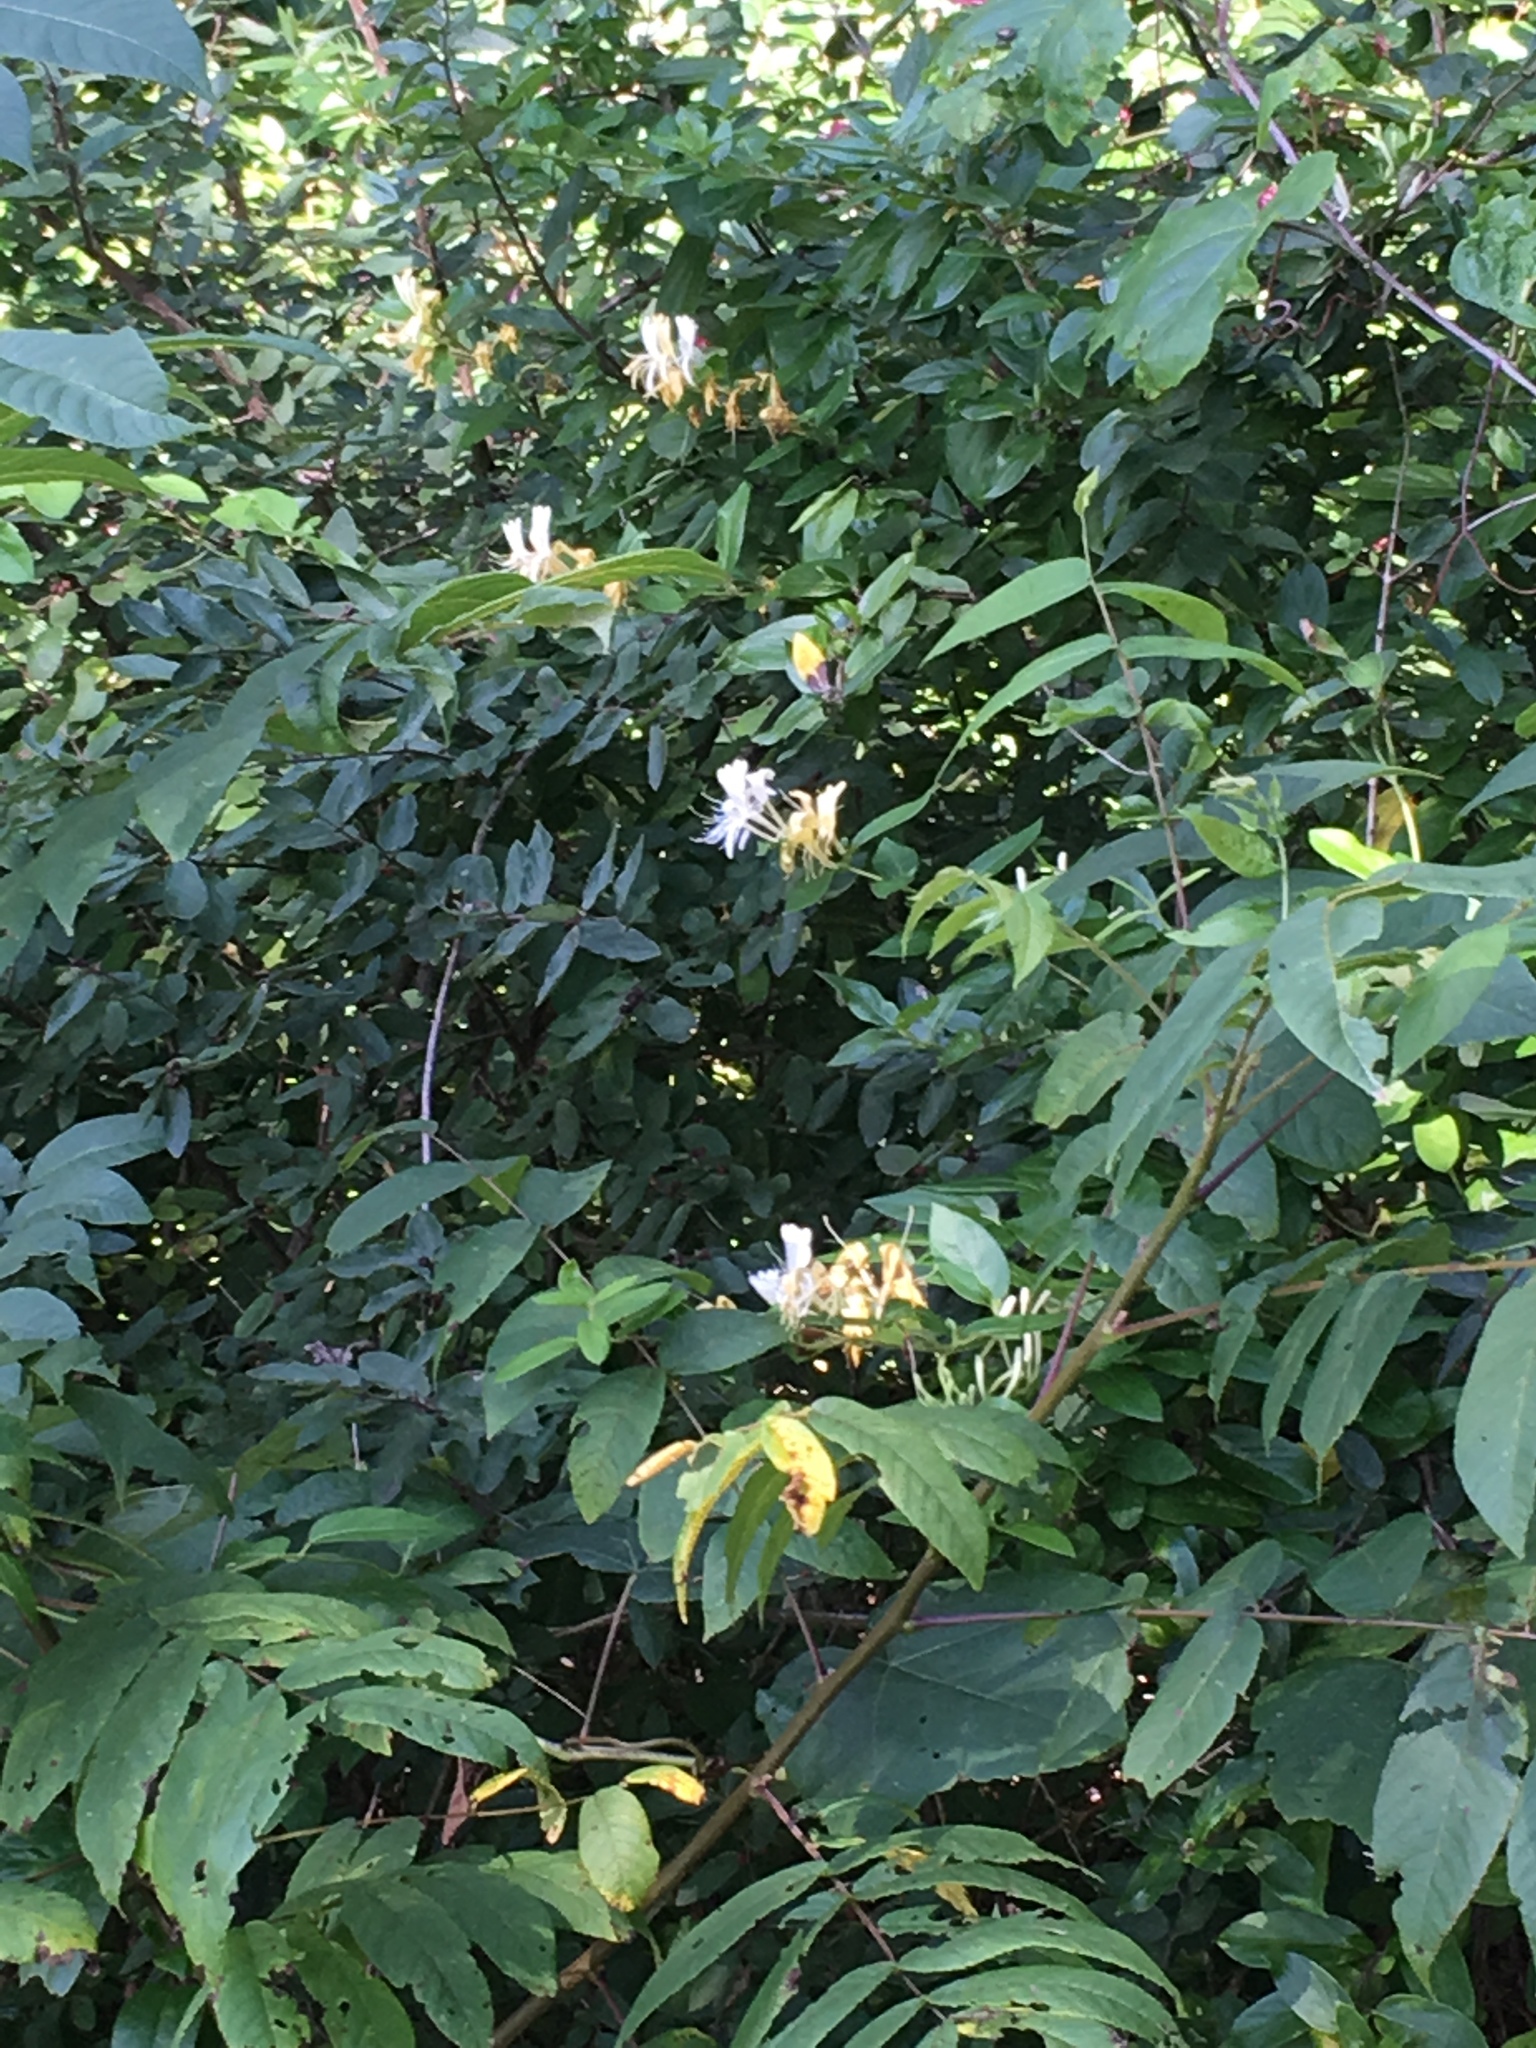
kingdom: Plantae
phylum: Tracheophyta
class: Magnoliopsida
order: Dipsacales
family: Caprifoliaceae
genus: Lonicera
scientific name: Lonicera japonica
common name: Japanese honeysuckle
